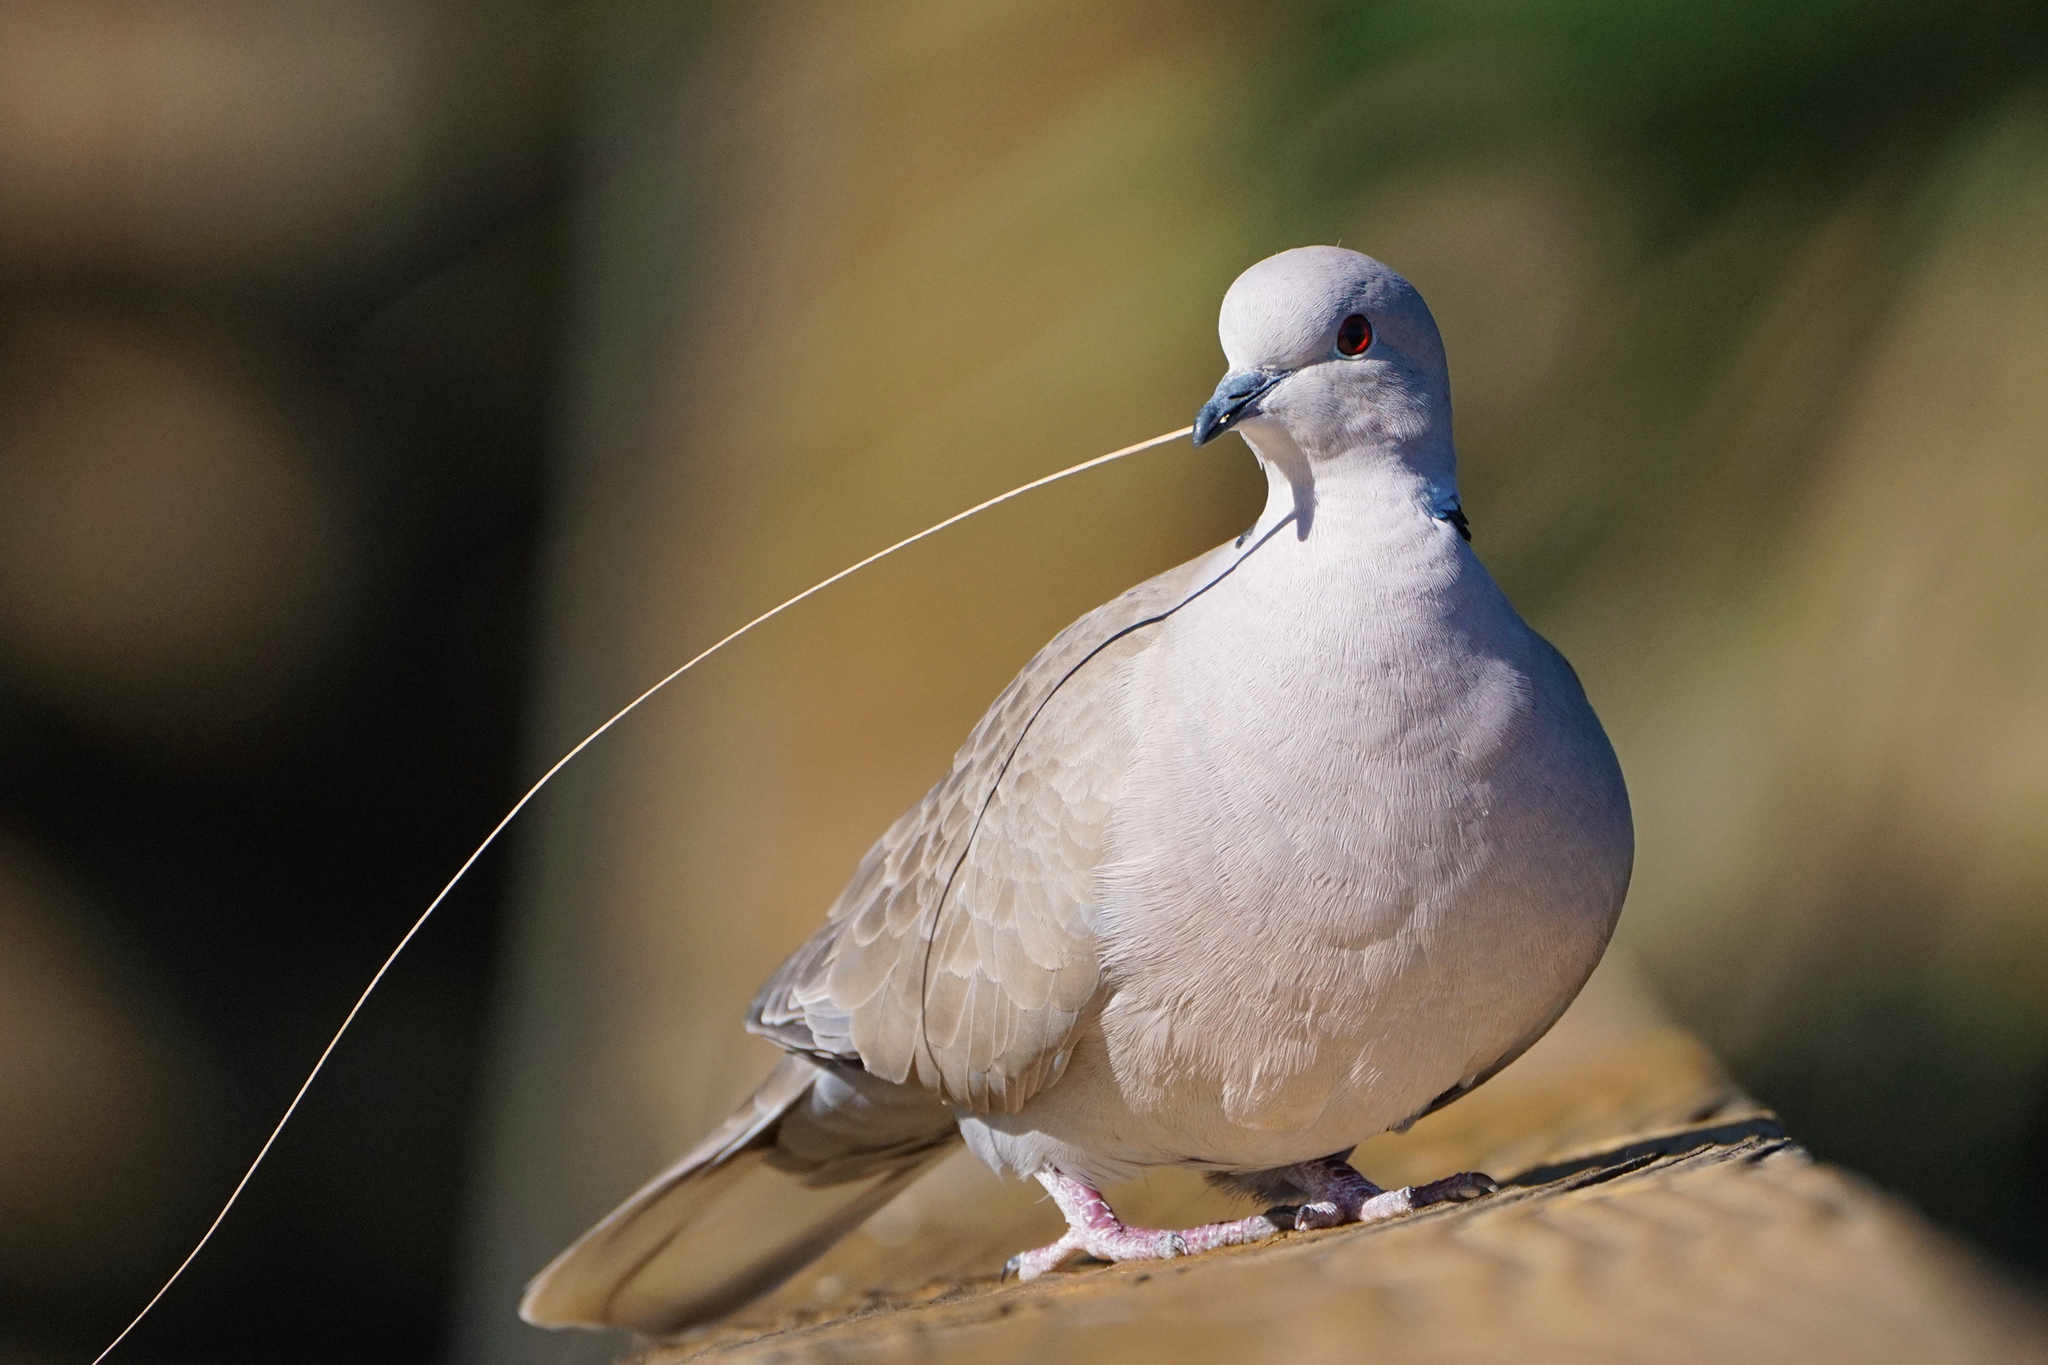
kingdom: Animalia
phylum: Chordata
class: Aves
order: Columbiformes
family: Columbidae
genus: Streptopelia
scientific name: Streptopelia decaocto
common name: Eurasian collared dove
